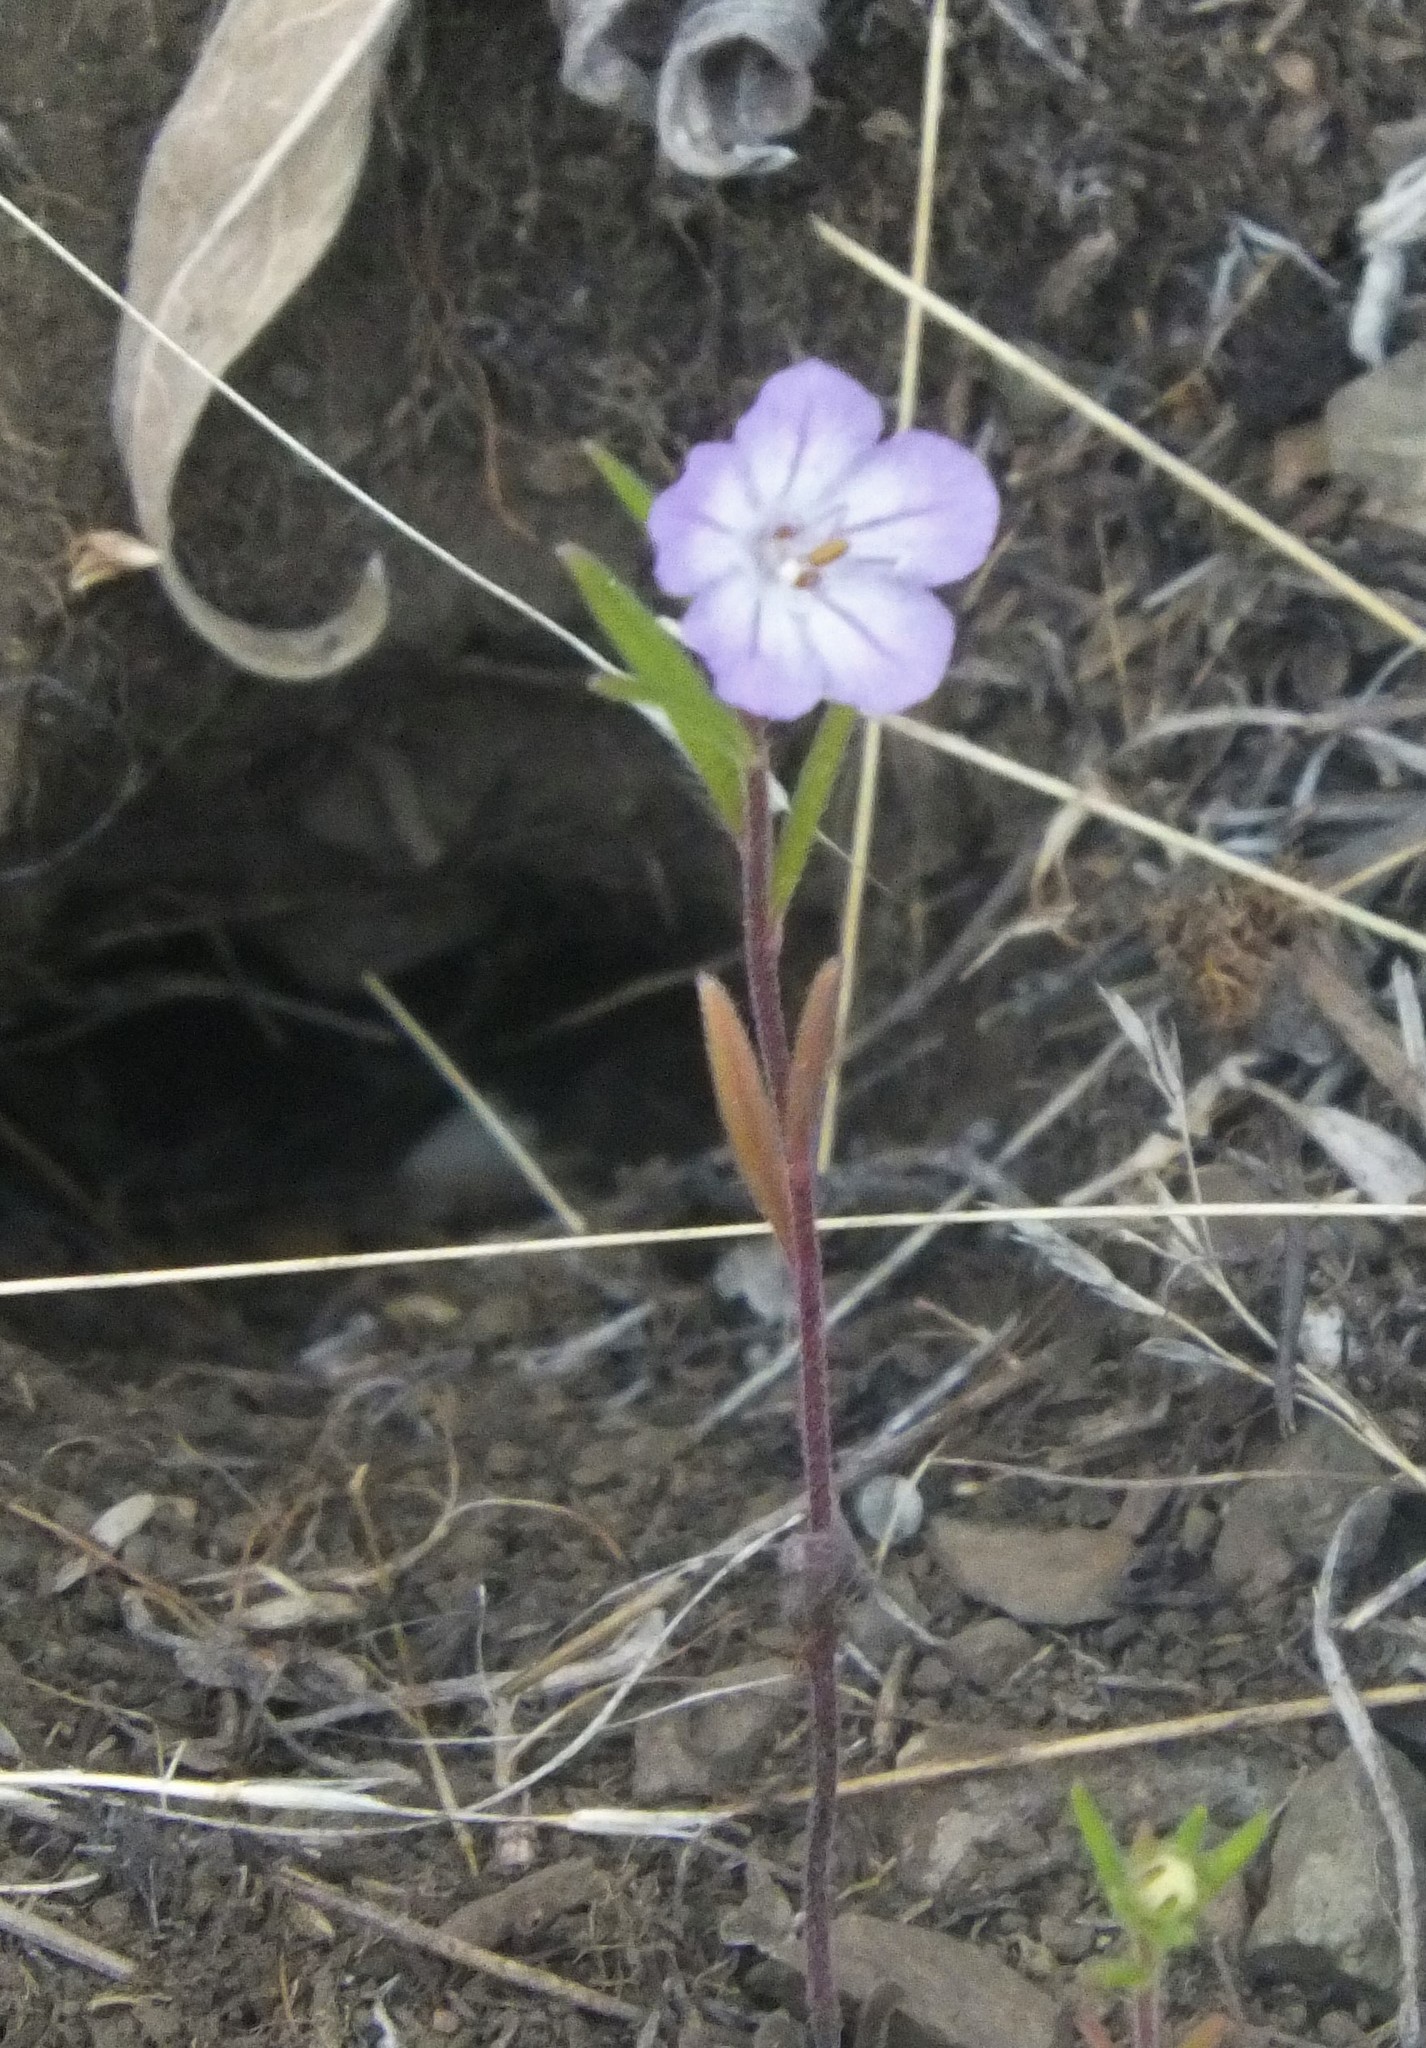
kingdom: Plantae
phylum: Tracheophyta
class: Magnoliopsida
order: Boraginales
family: Hydrophyllaceae
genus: Phacelia
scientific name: Phacelia linearis
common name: Linear-leaved phacelia
